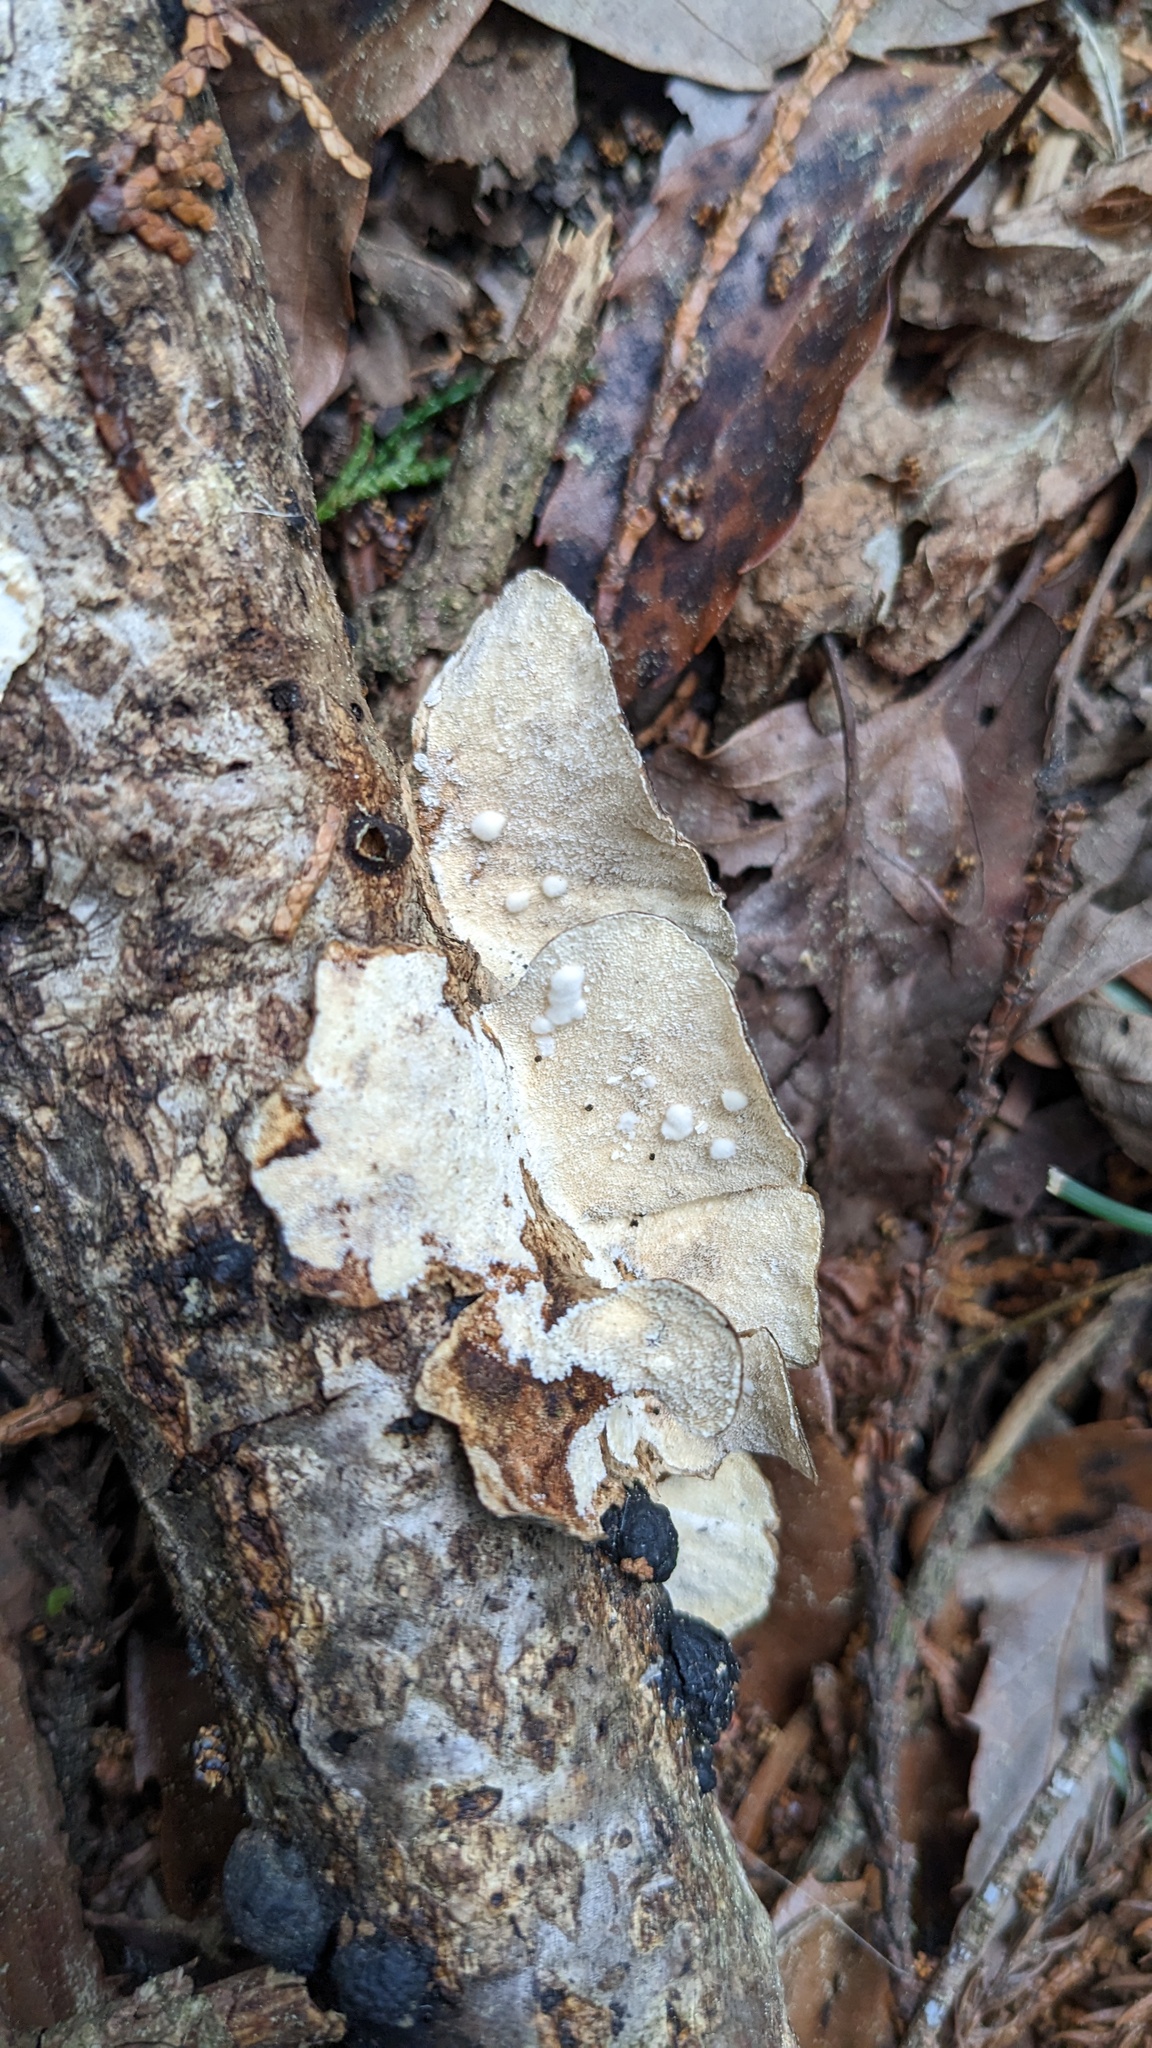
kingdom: Fungi
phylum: Basidiomycota
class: Agaricomycetes
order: Polyporales
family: Polyporaceae
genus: Trametes
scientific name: Trametes versicolor
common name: Turkeytail
